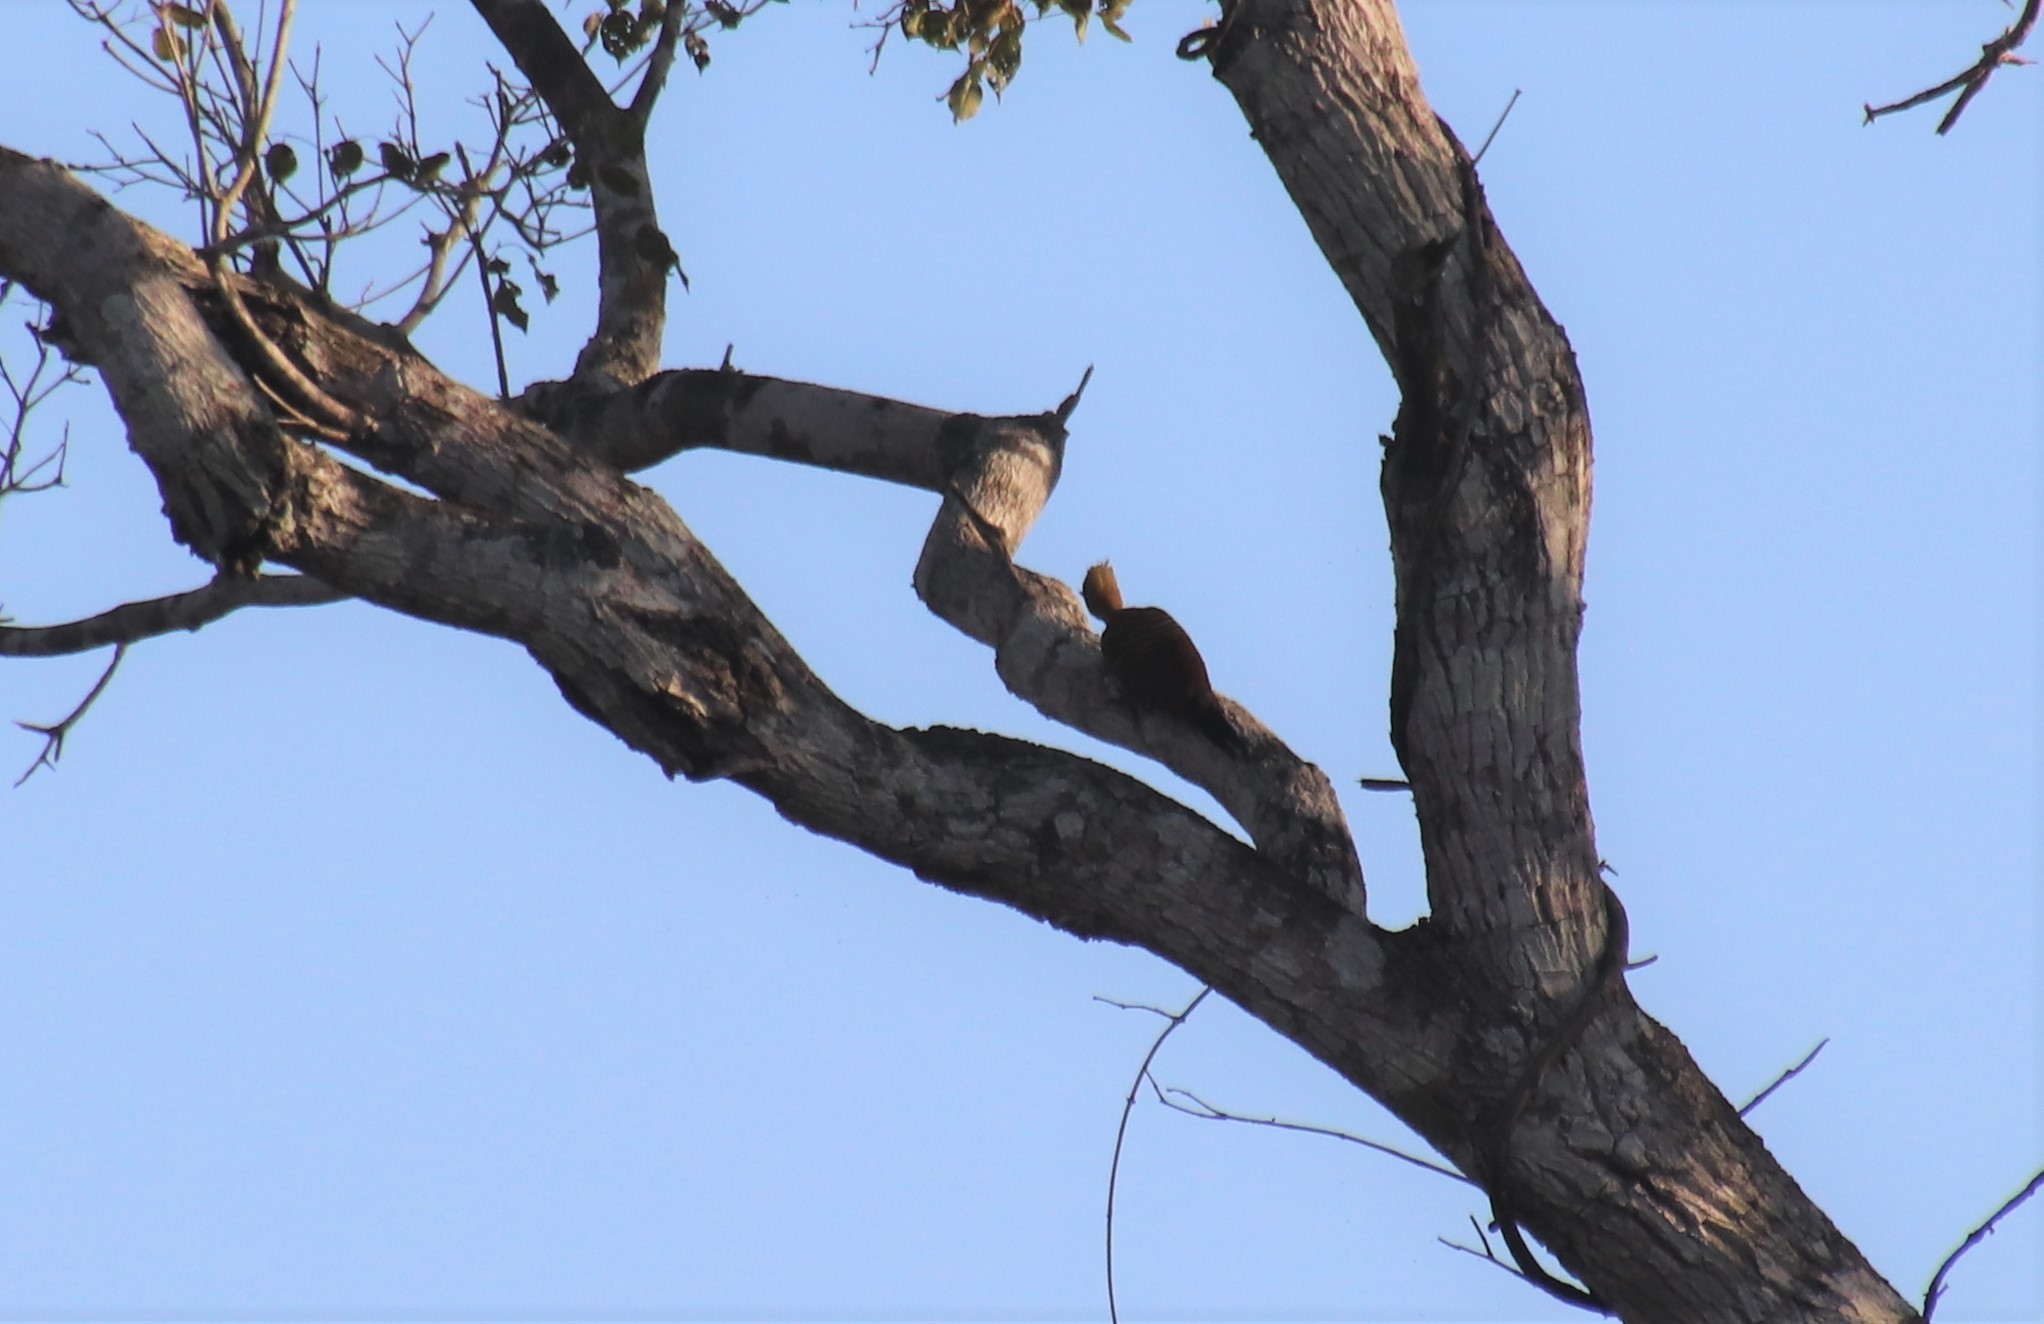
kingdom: Animalia
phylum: Chordata
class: Aves
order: Piciformes
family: Picidae
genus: Celeus
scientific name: Celeus lugubris
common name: Pale-crested woodpecker
